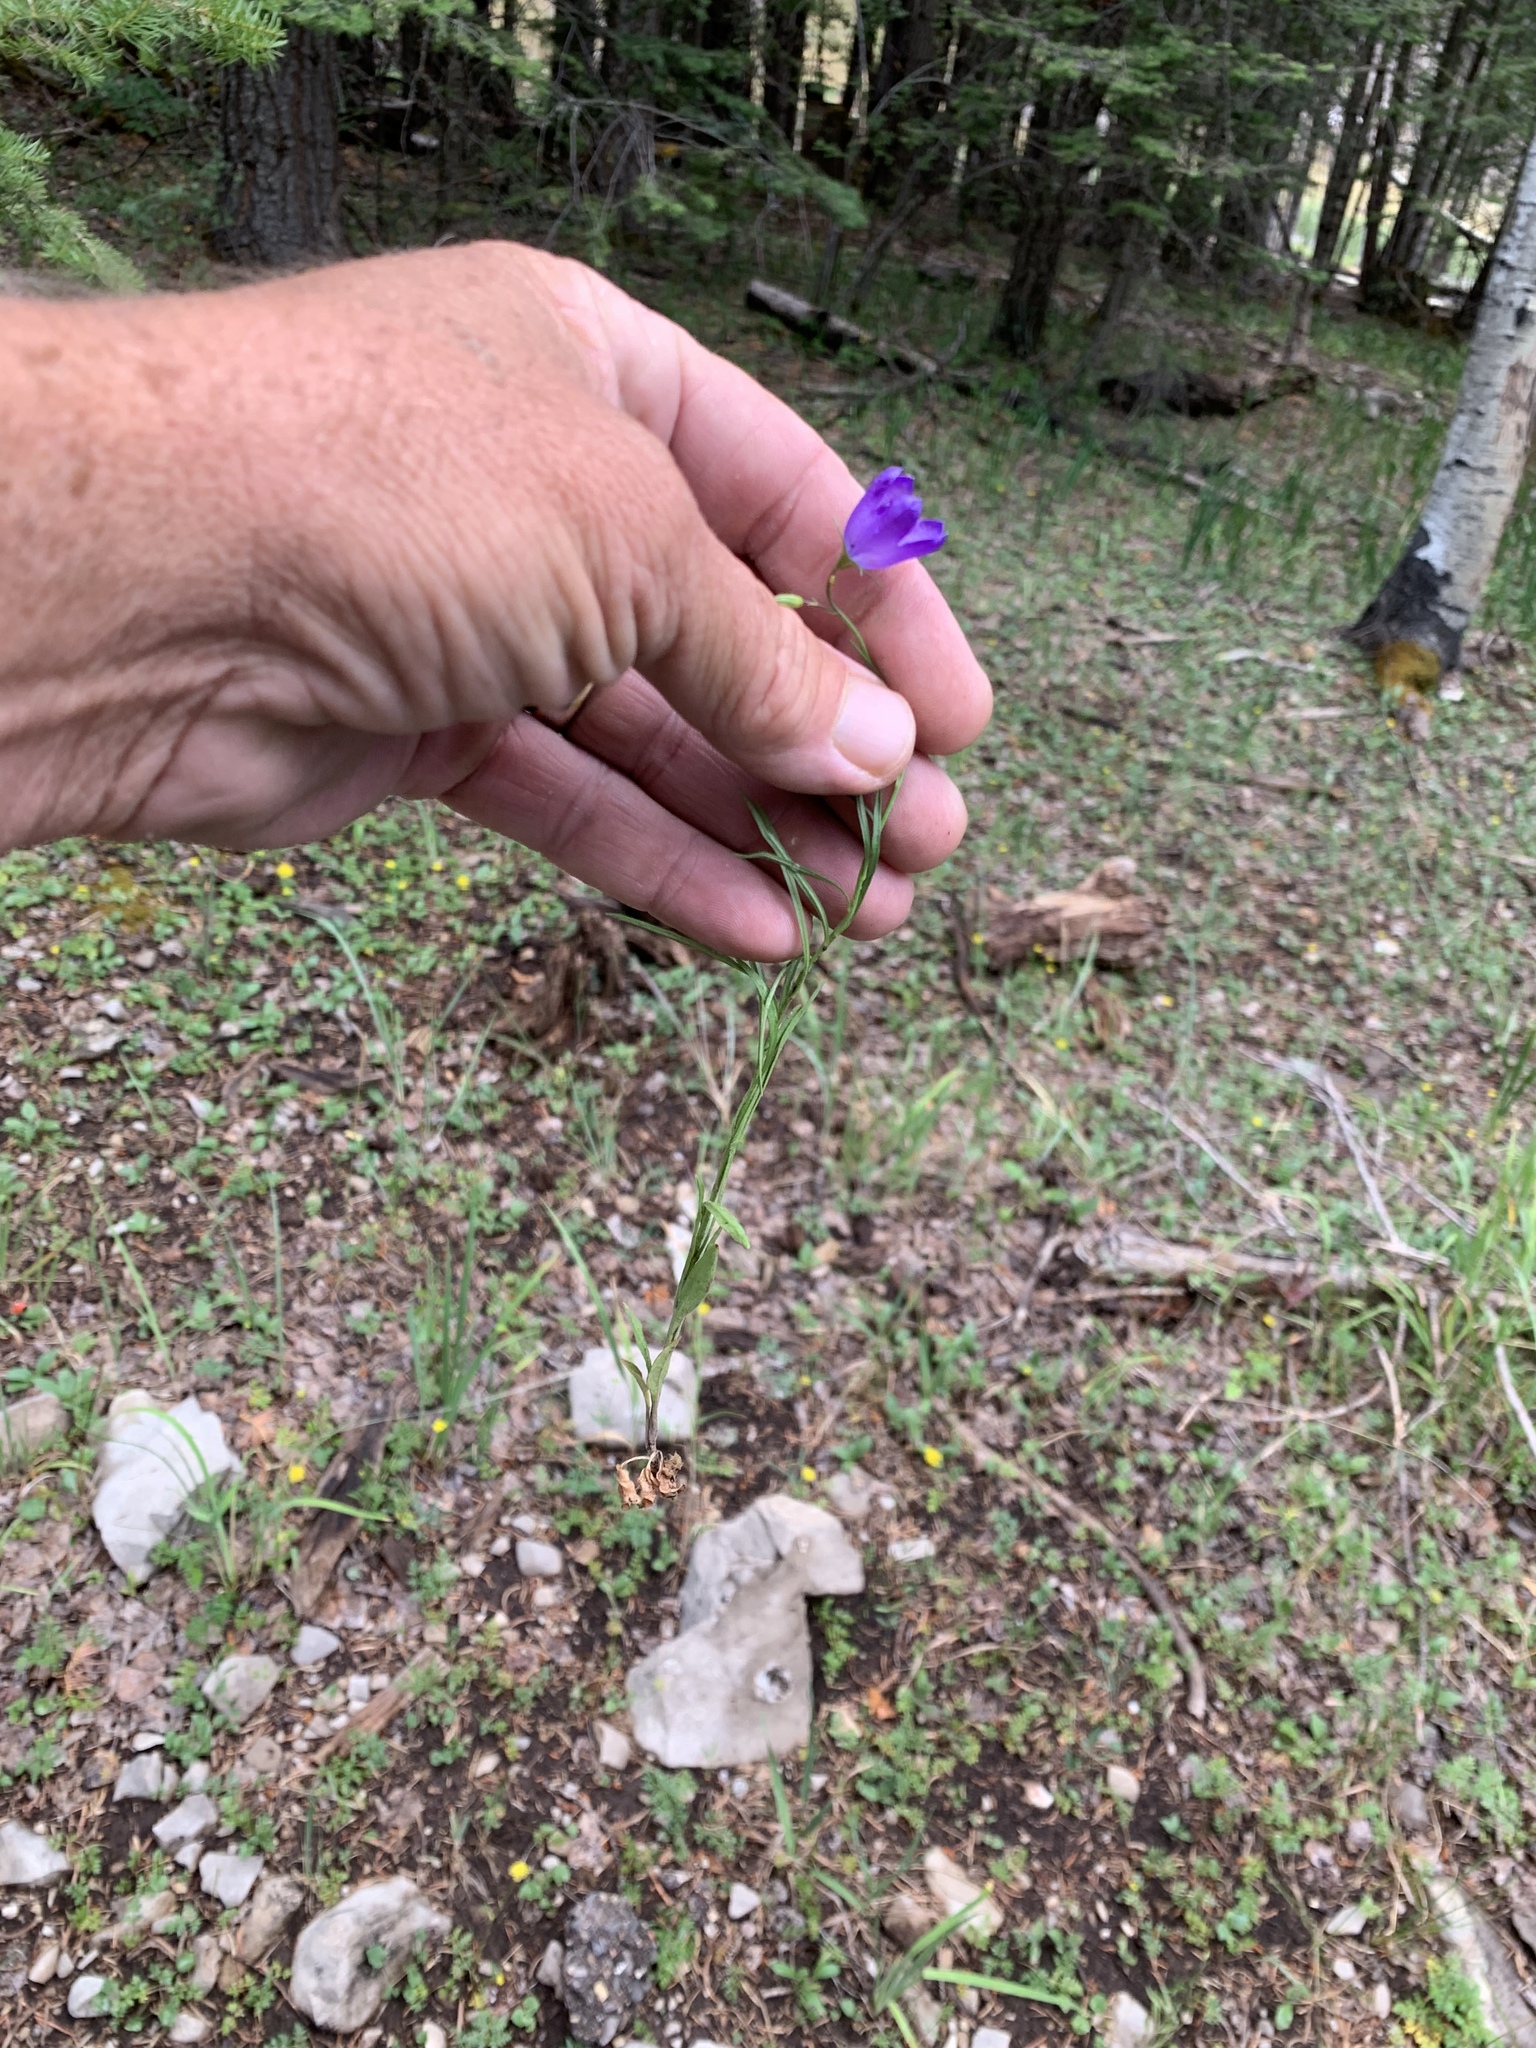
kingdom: Plantae
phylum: Tracheophyta
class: Magnoliopsida
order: Asterales
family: Campanulaceae
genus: Campanula
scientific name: Campanula petiolata
